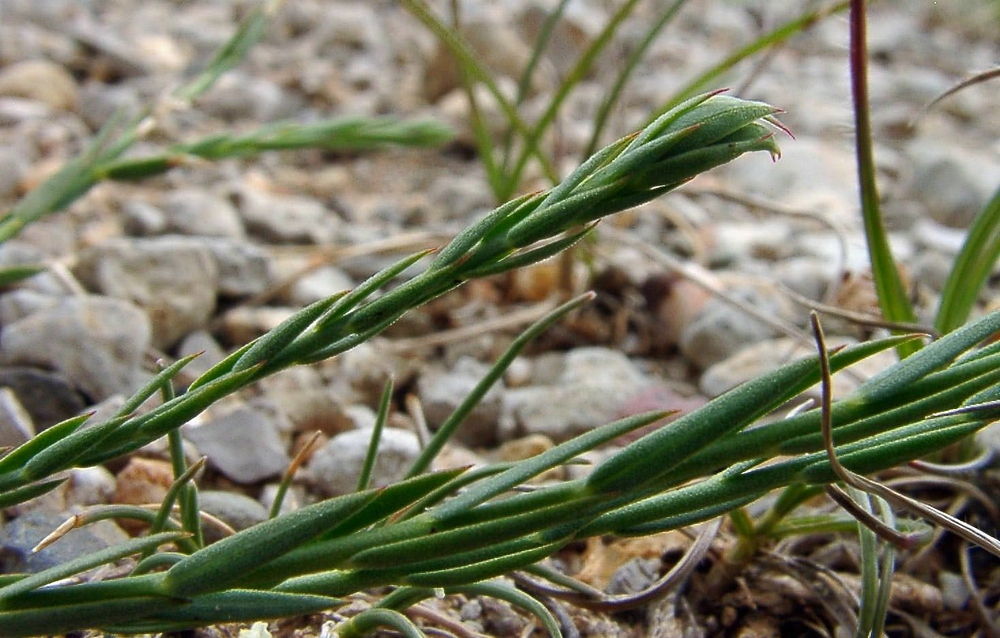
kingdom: Plantae
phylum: Tracheophyta
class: Magnoliopsida
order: Malpighiales
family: Linaceae
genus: Linum
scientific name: Linum narbonense
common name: Flax
